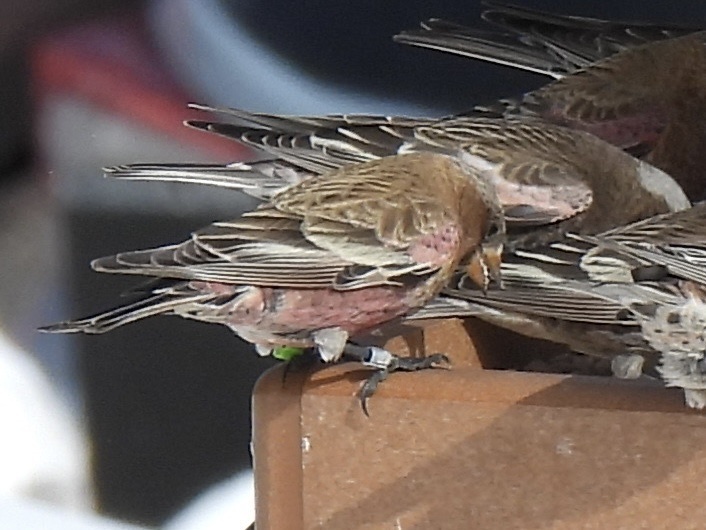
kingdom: Animalia
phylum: Chordata
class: Aves
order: Passeriformes
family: Fringillidae
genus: Leucosticte
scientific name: Leucosticte tephrocotis
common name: Gray-crowned rosy-finch
